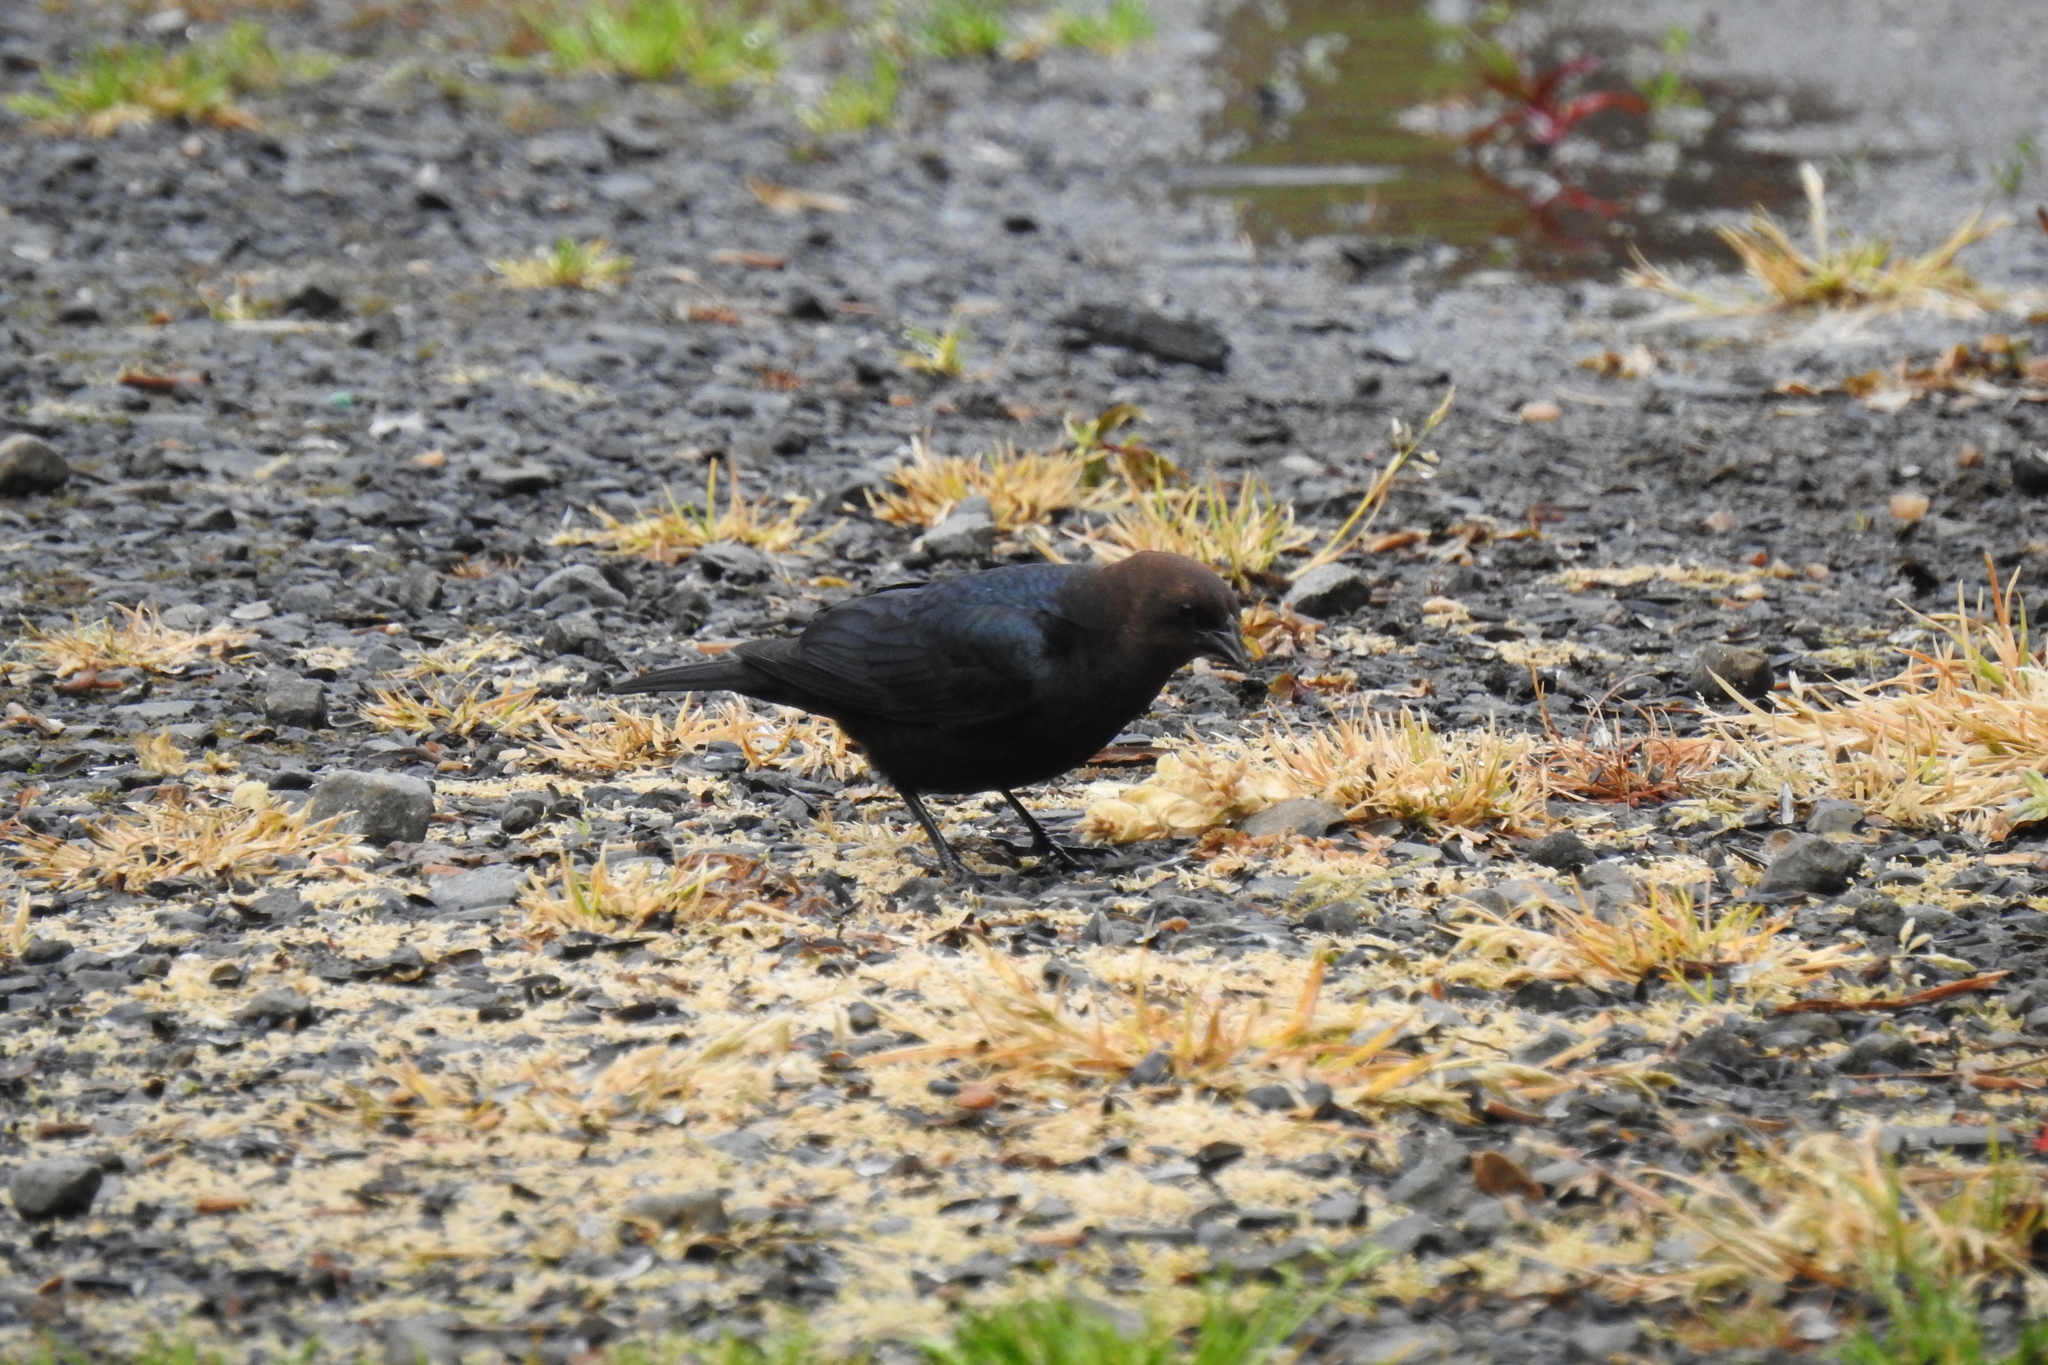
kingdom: Animalia
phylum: Chordata
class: Aves
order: Passeriformes
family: Icteridae
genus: Molothrus
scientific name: Molothrus ater
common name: Brown-headed cowbird
